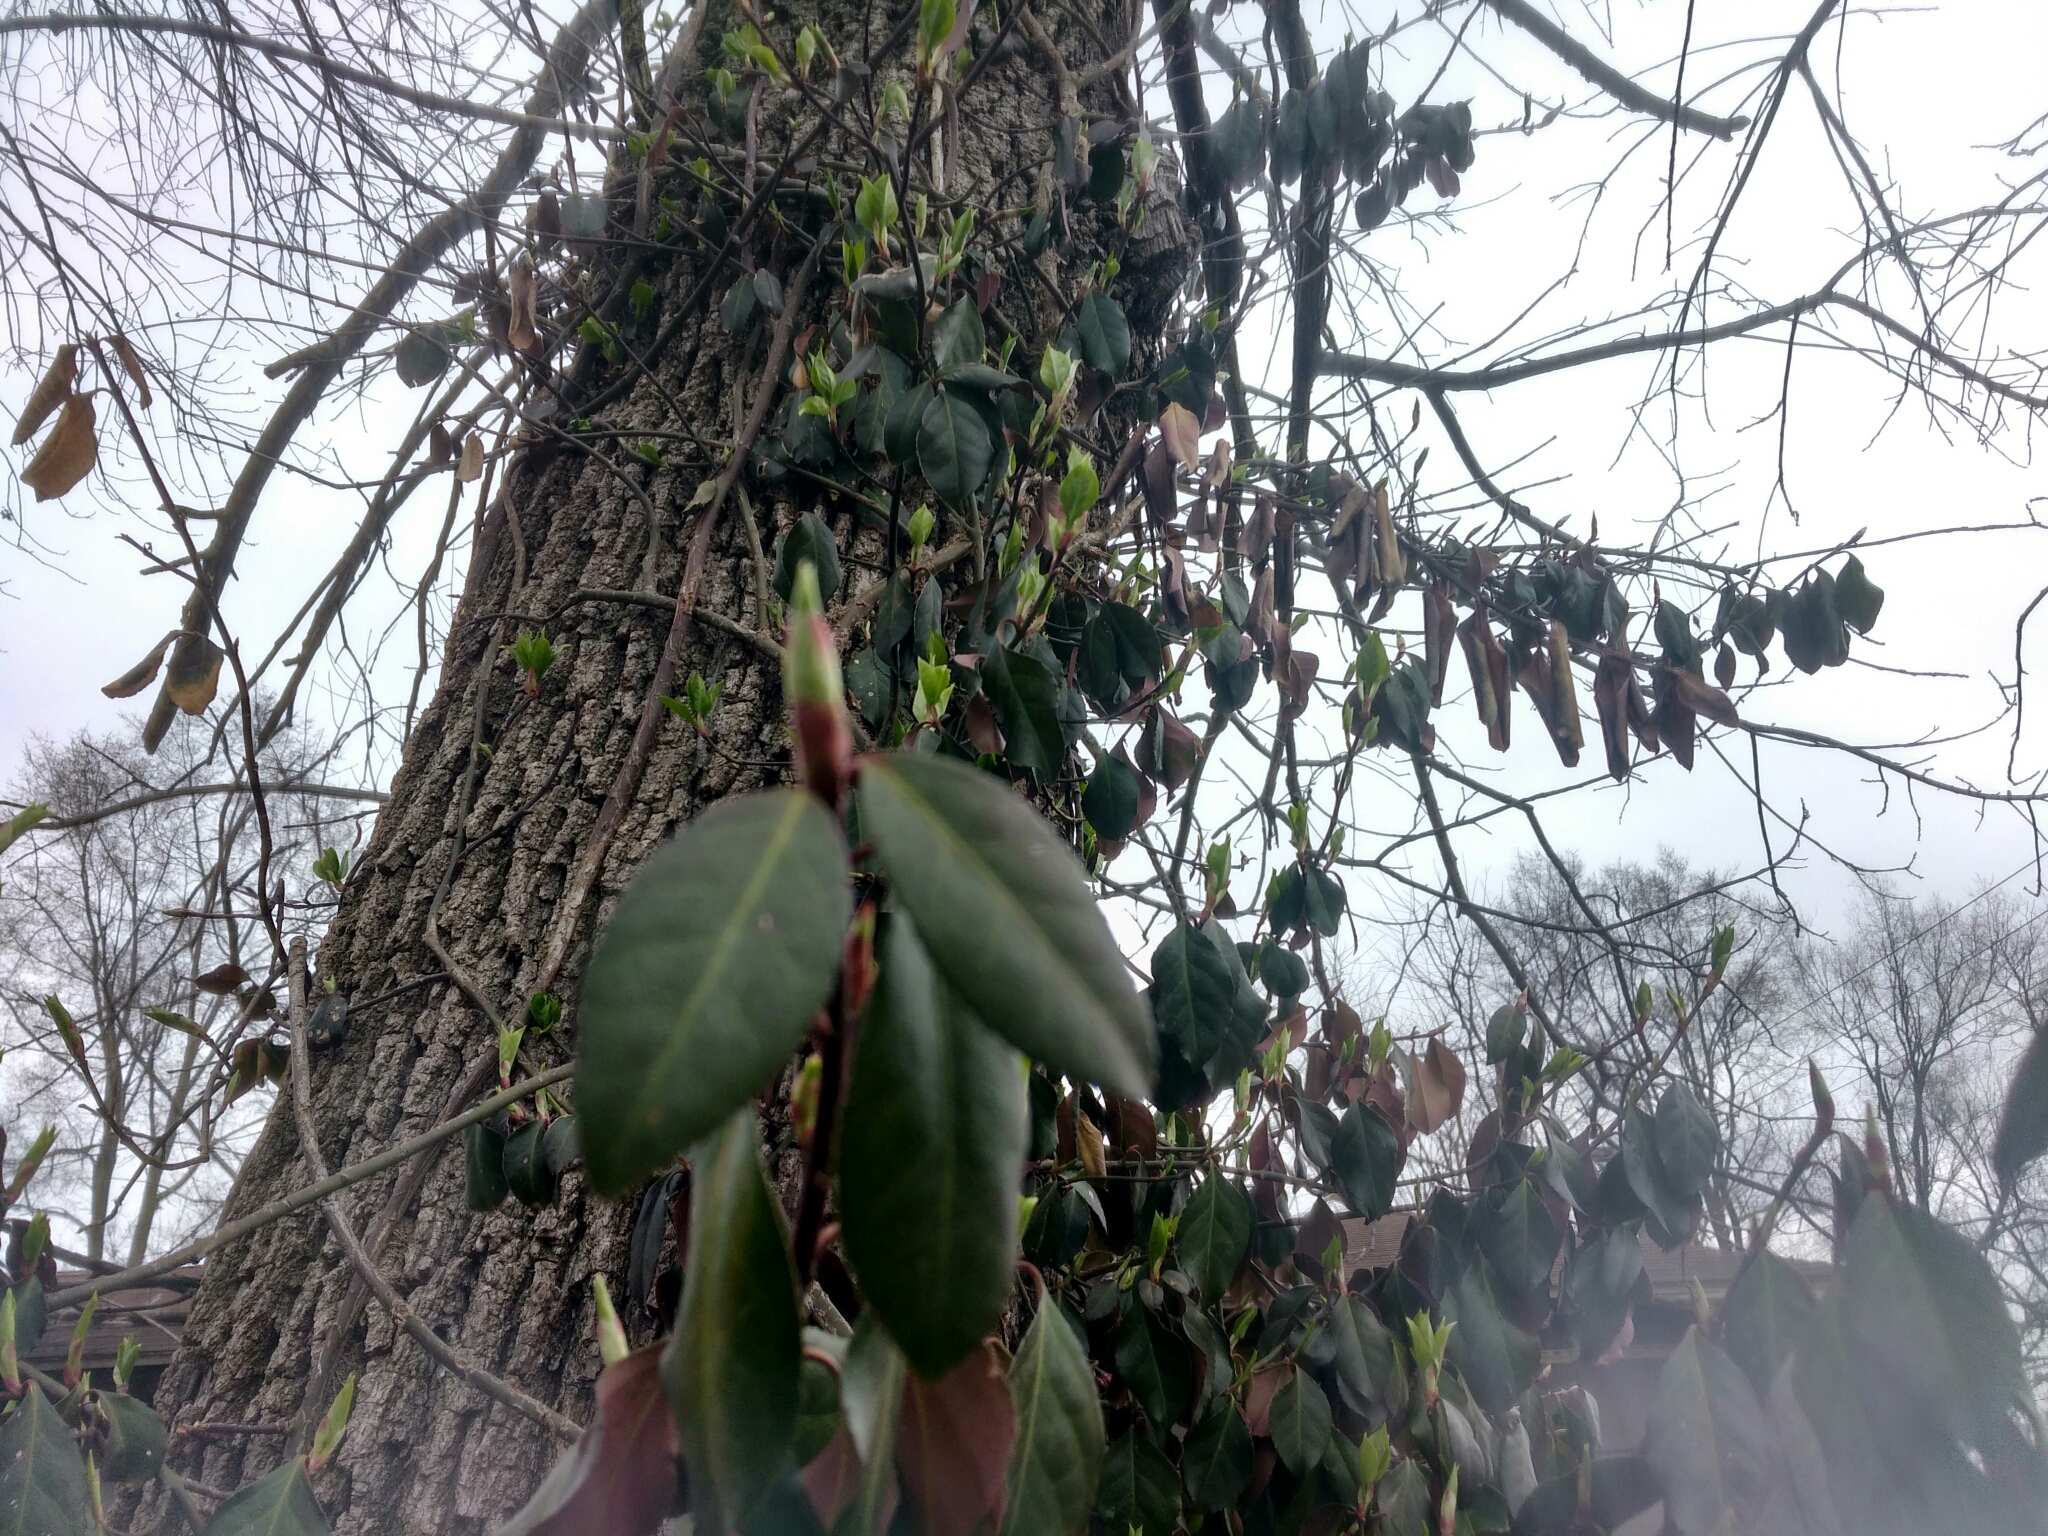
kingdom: Plantae
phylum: Tracheophyta
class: Magnoliopsida
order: Celastrales
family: Celastraceae
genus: Euonymus
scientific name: Euonymus fortunei
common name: Climbing euonymus
